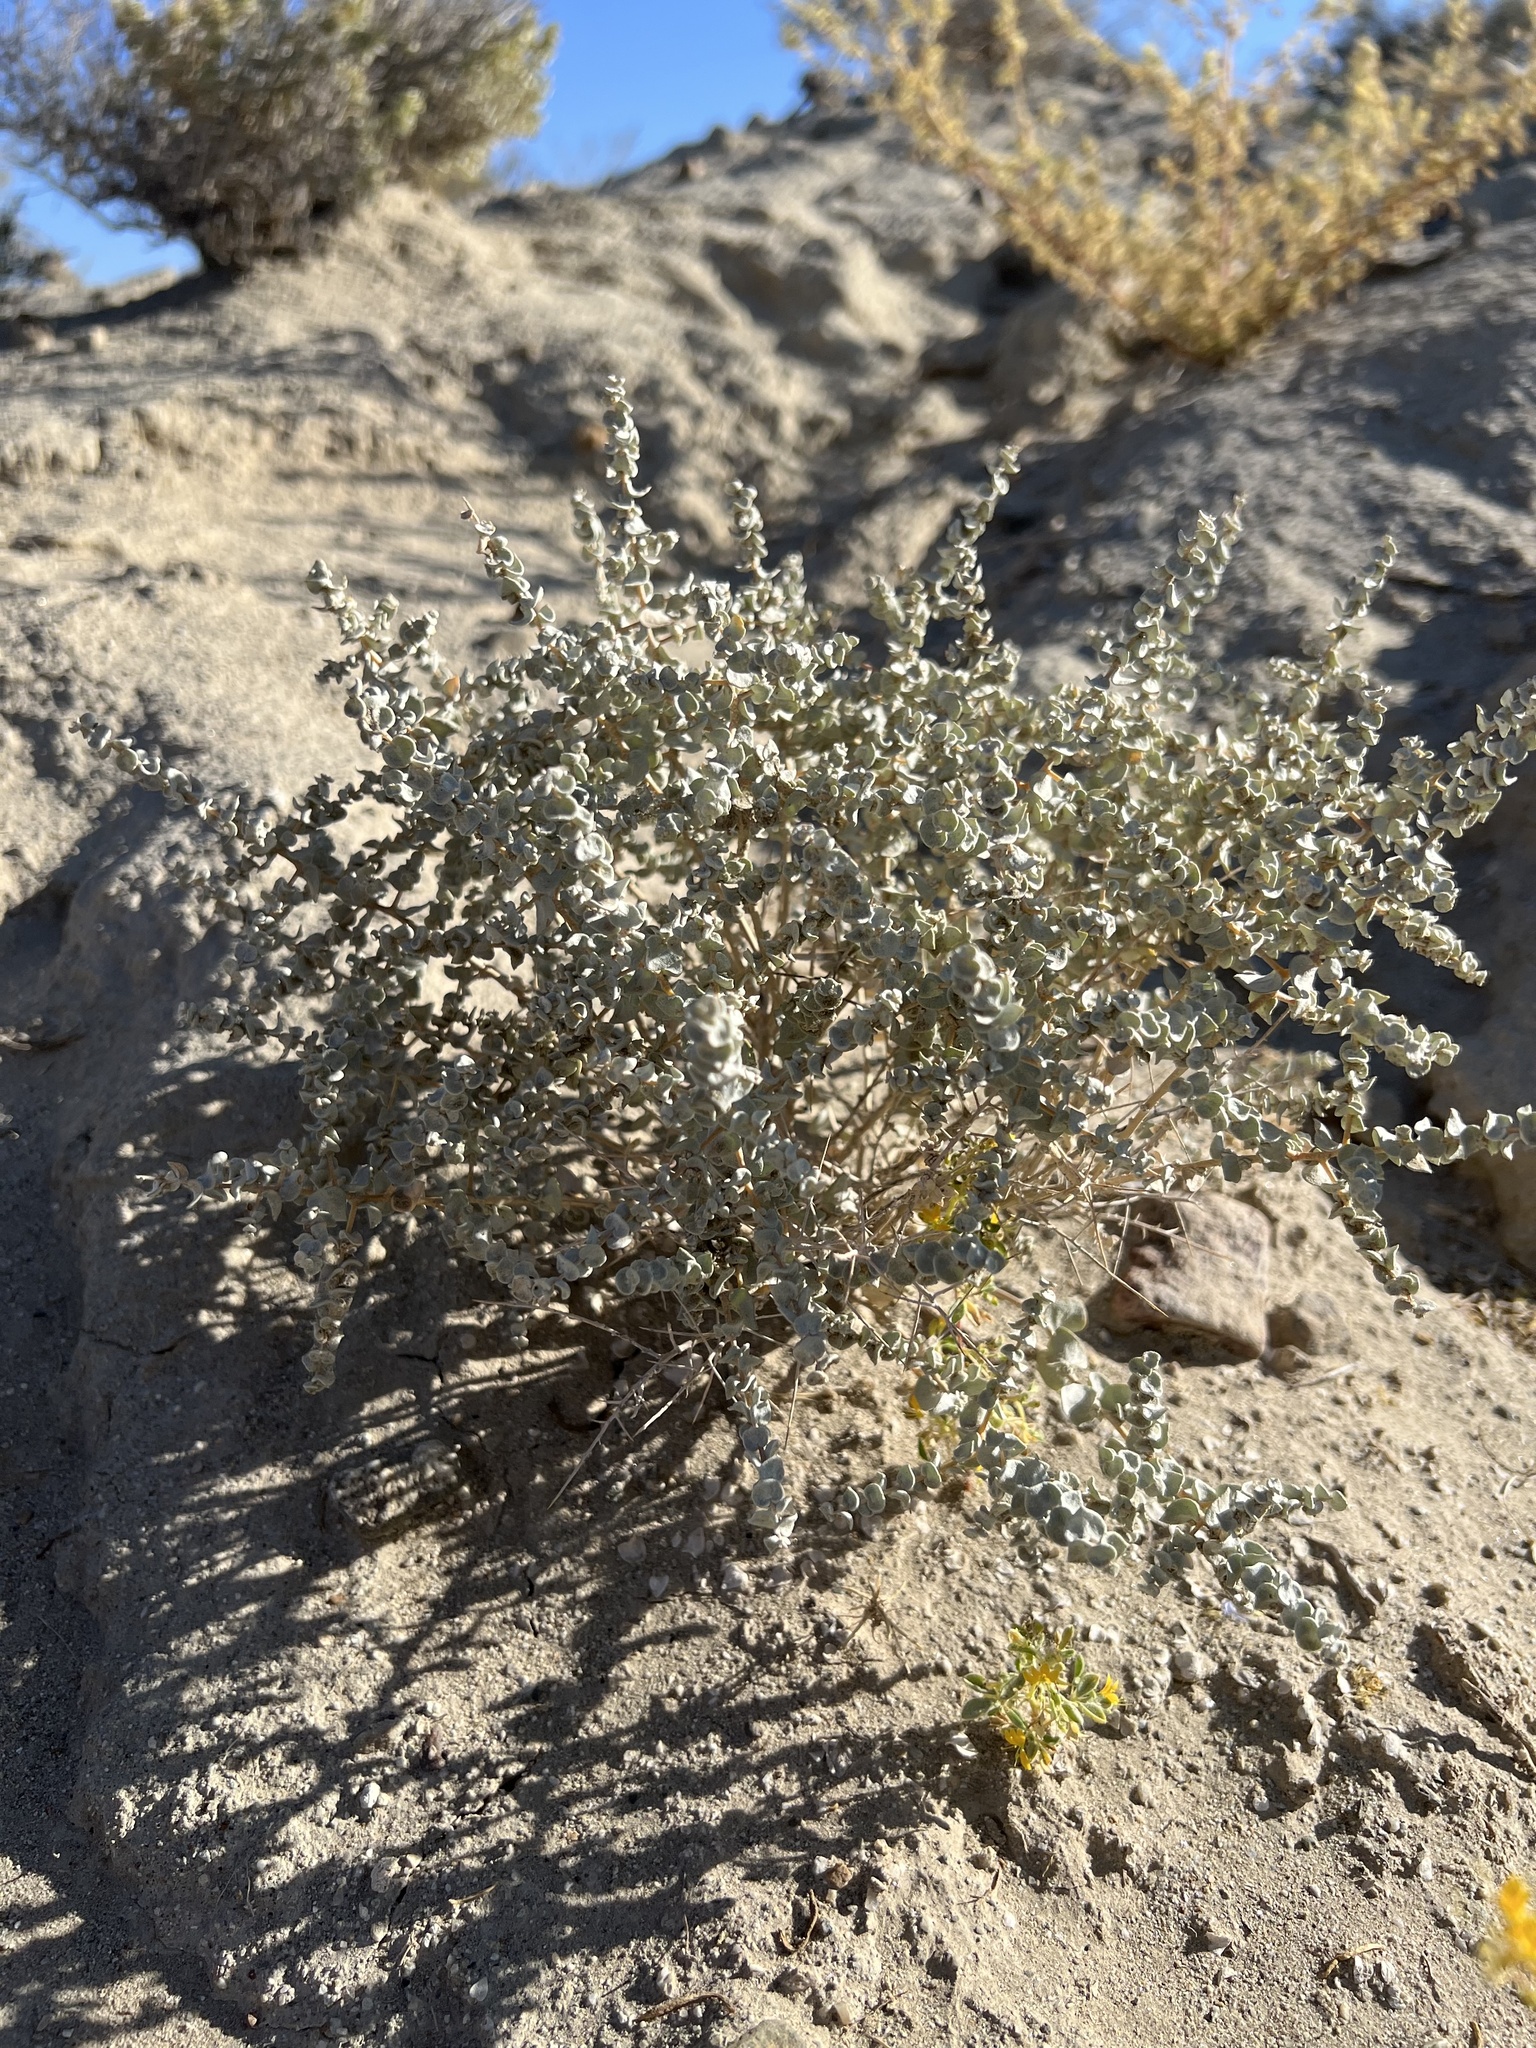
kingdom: Plantae
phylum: Tracheophyta
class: Magnoliopsida
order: Caryophyllales
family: Amaranthaceae
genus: Atriplex
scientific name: Atriplex parryi
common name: Parry's saltbush
